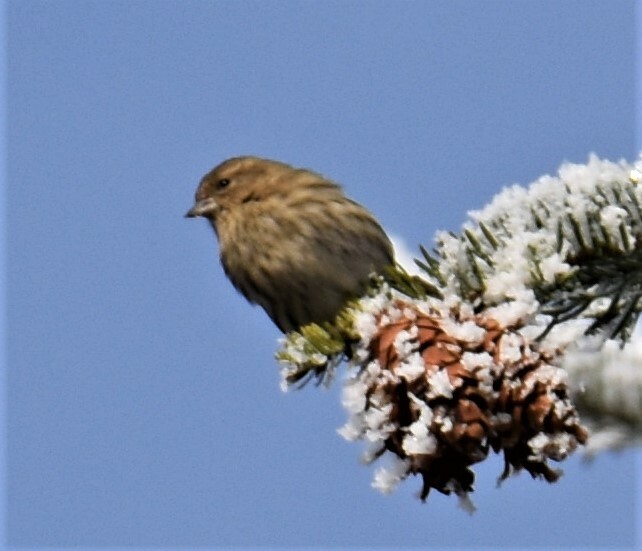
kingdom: Animalia
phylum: Chordata
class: Aves
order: Passeriformes
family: Fringillidae
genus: Spinus
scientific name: Spinus pinus
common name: Pine siskin
